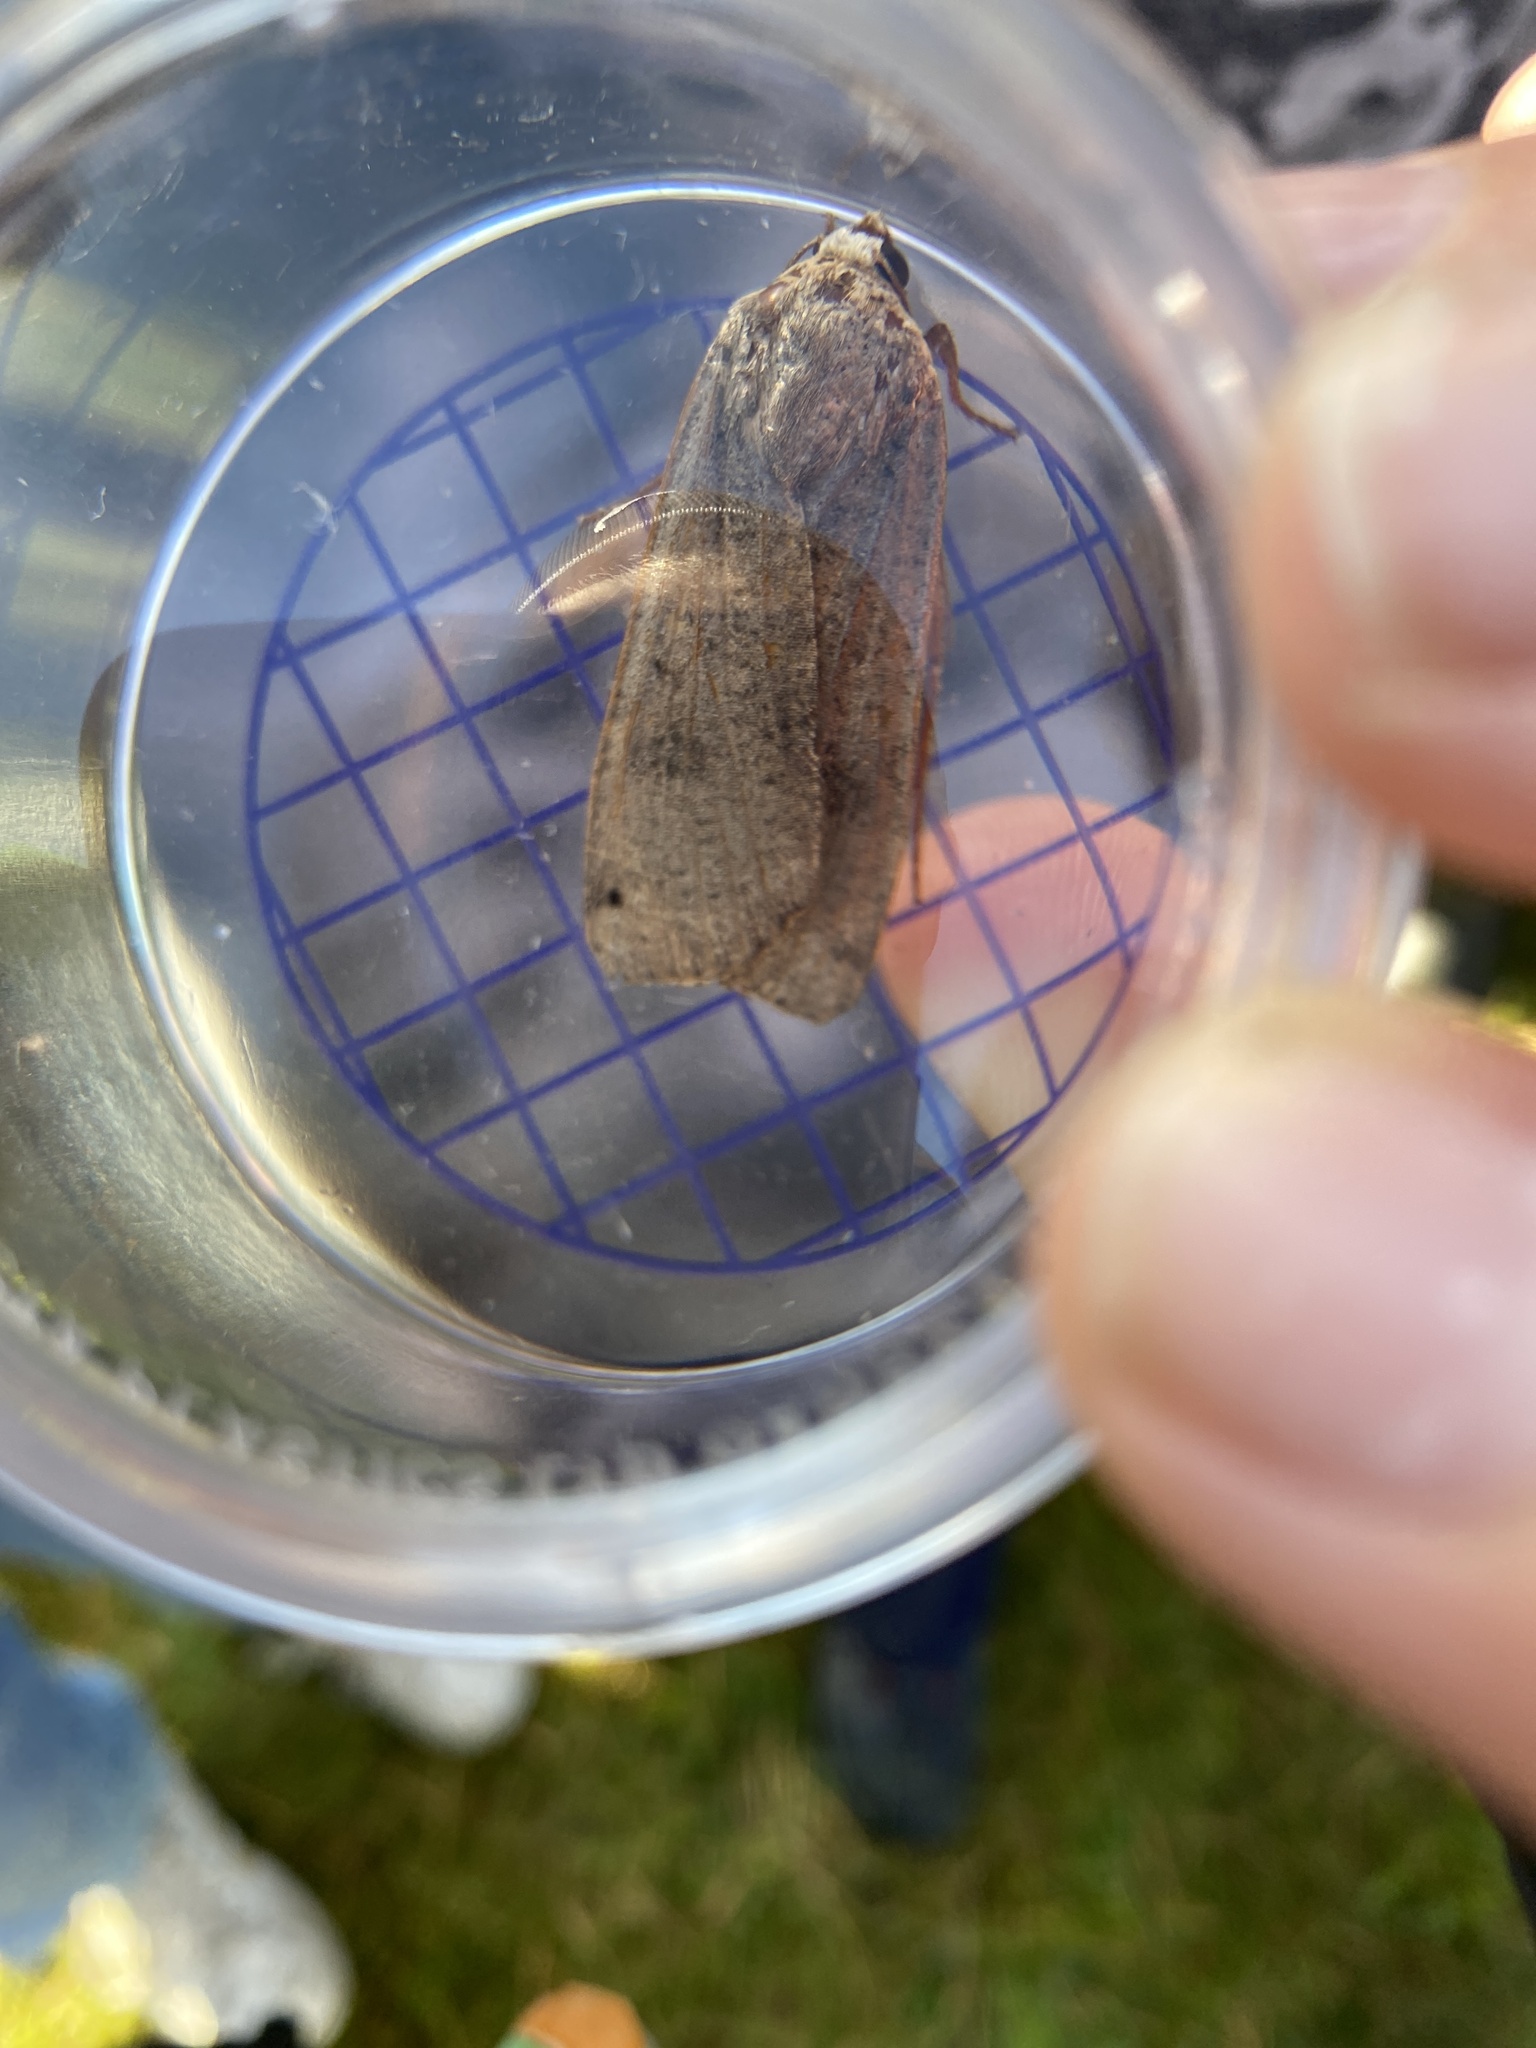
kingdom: Animalia
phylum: Arthropoda
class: Insecta
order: Lepidoptera
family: Noctuidae
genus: Noctua
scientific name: Noctua pronuba
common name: Large yellow underwing
